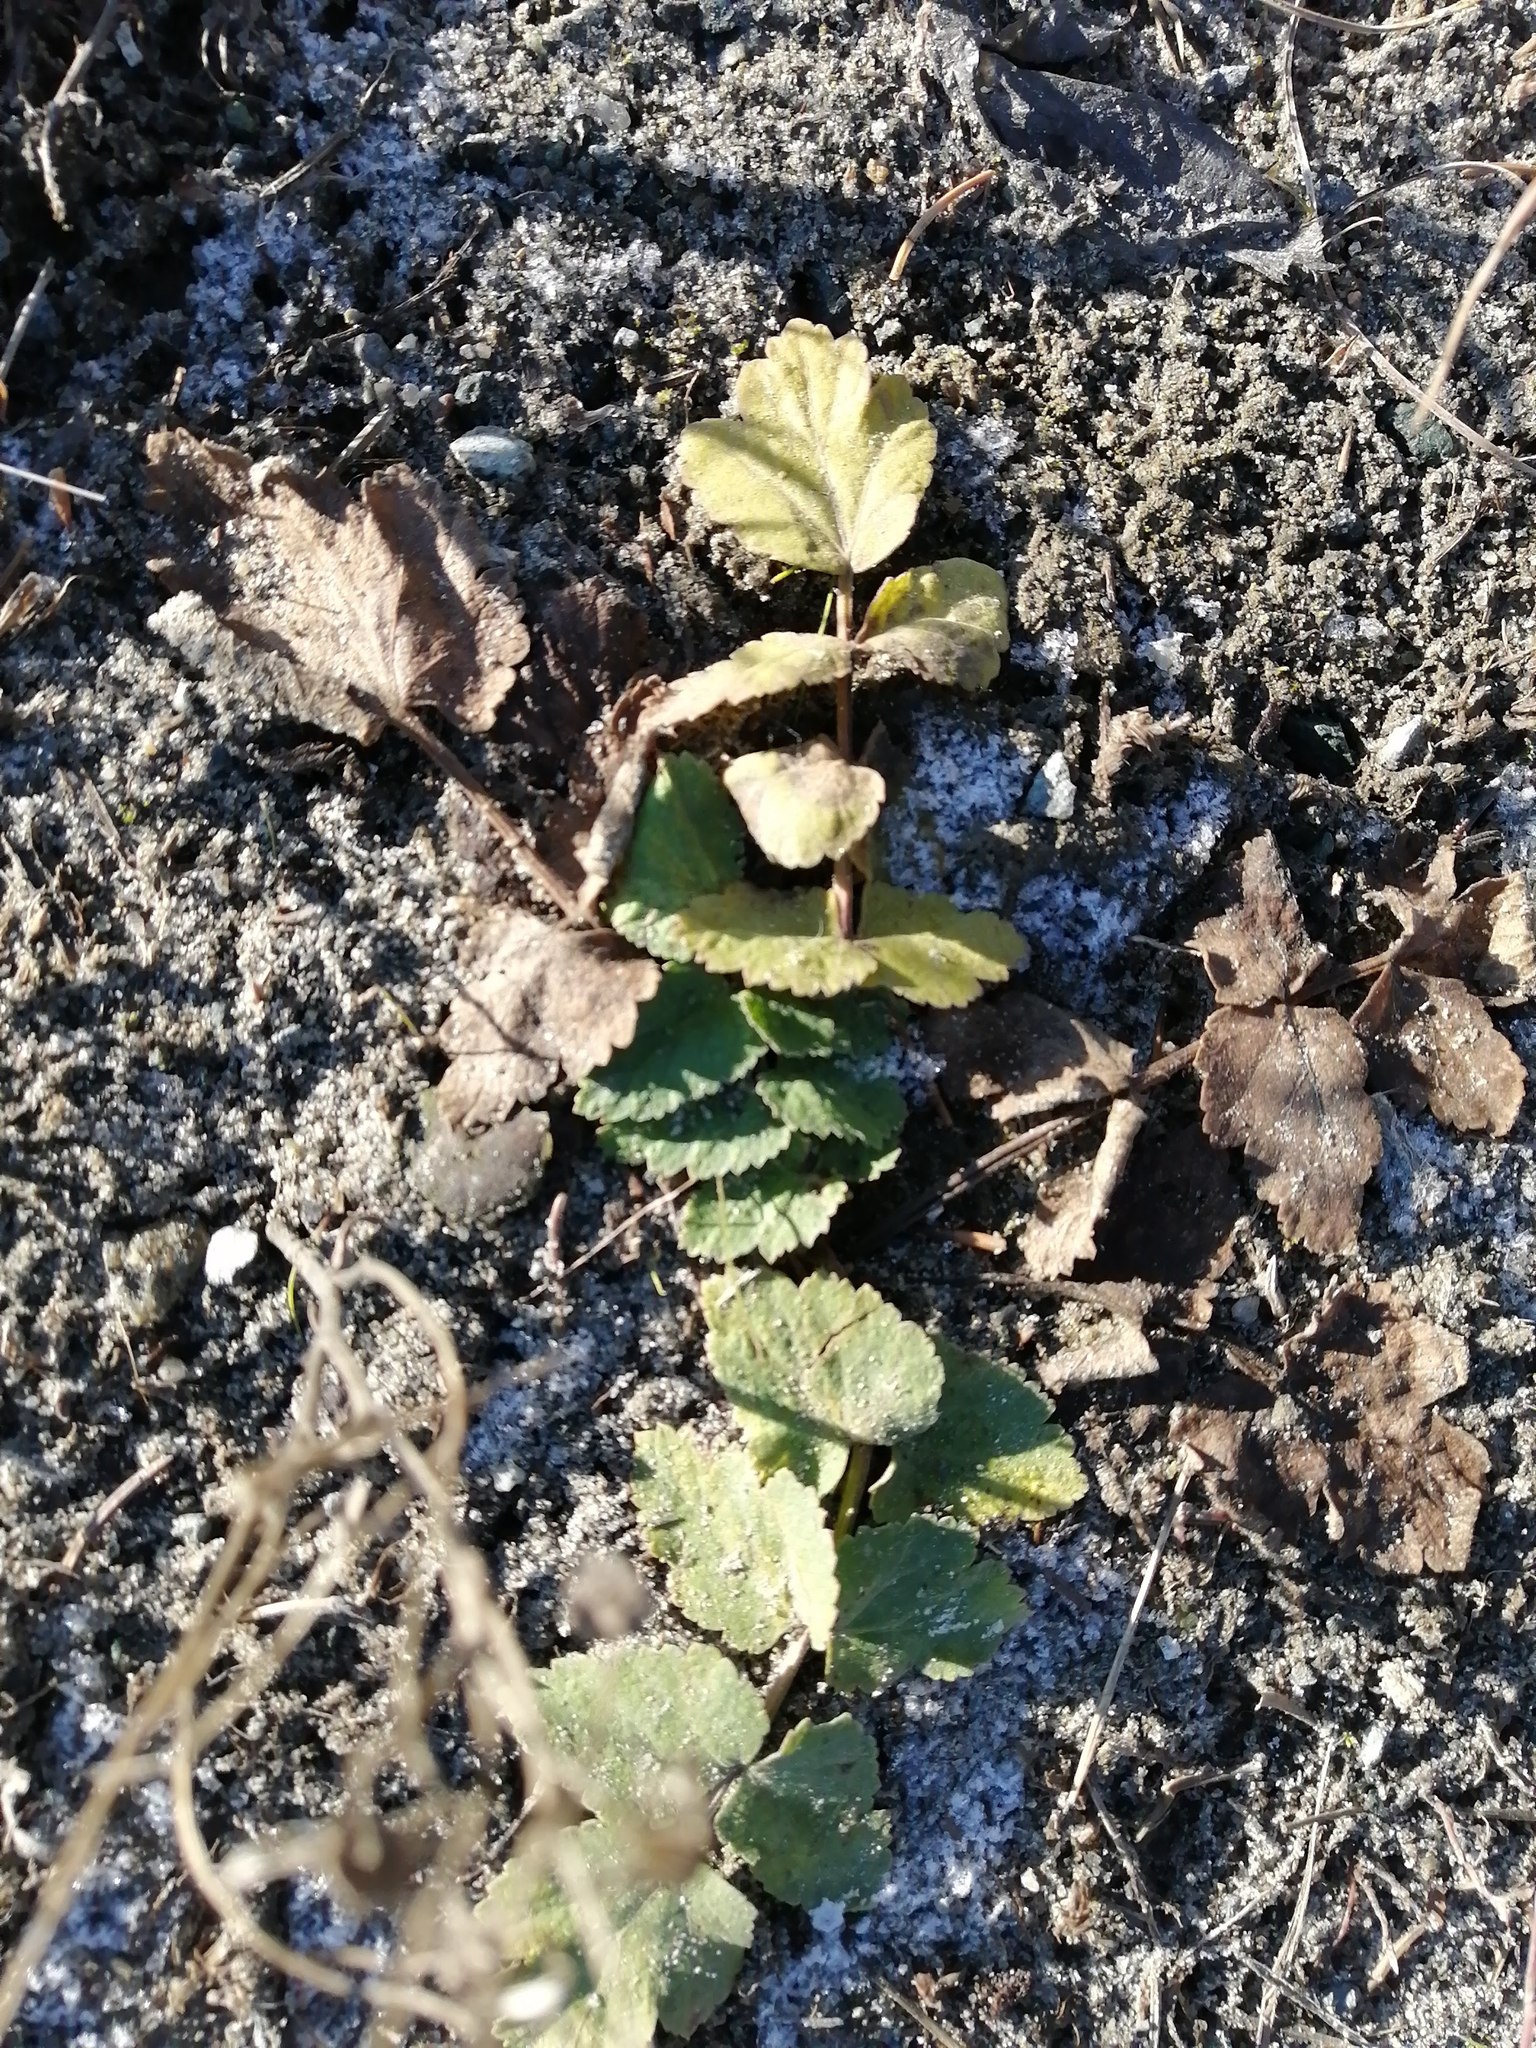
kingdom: Plantae
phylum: Tracheophyta
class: Magnoliopsida
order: Apiales
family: Apiaceae
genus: Pimpinella
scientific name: Pimpinella saxifraga
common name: Burnet-saxifrage
